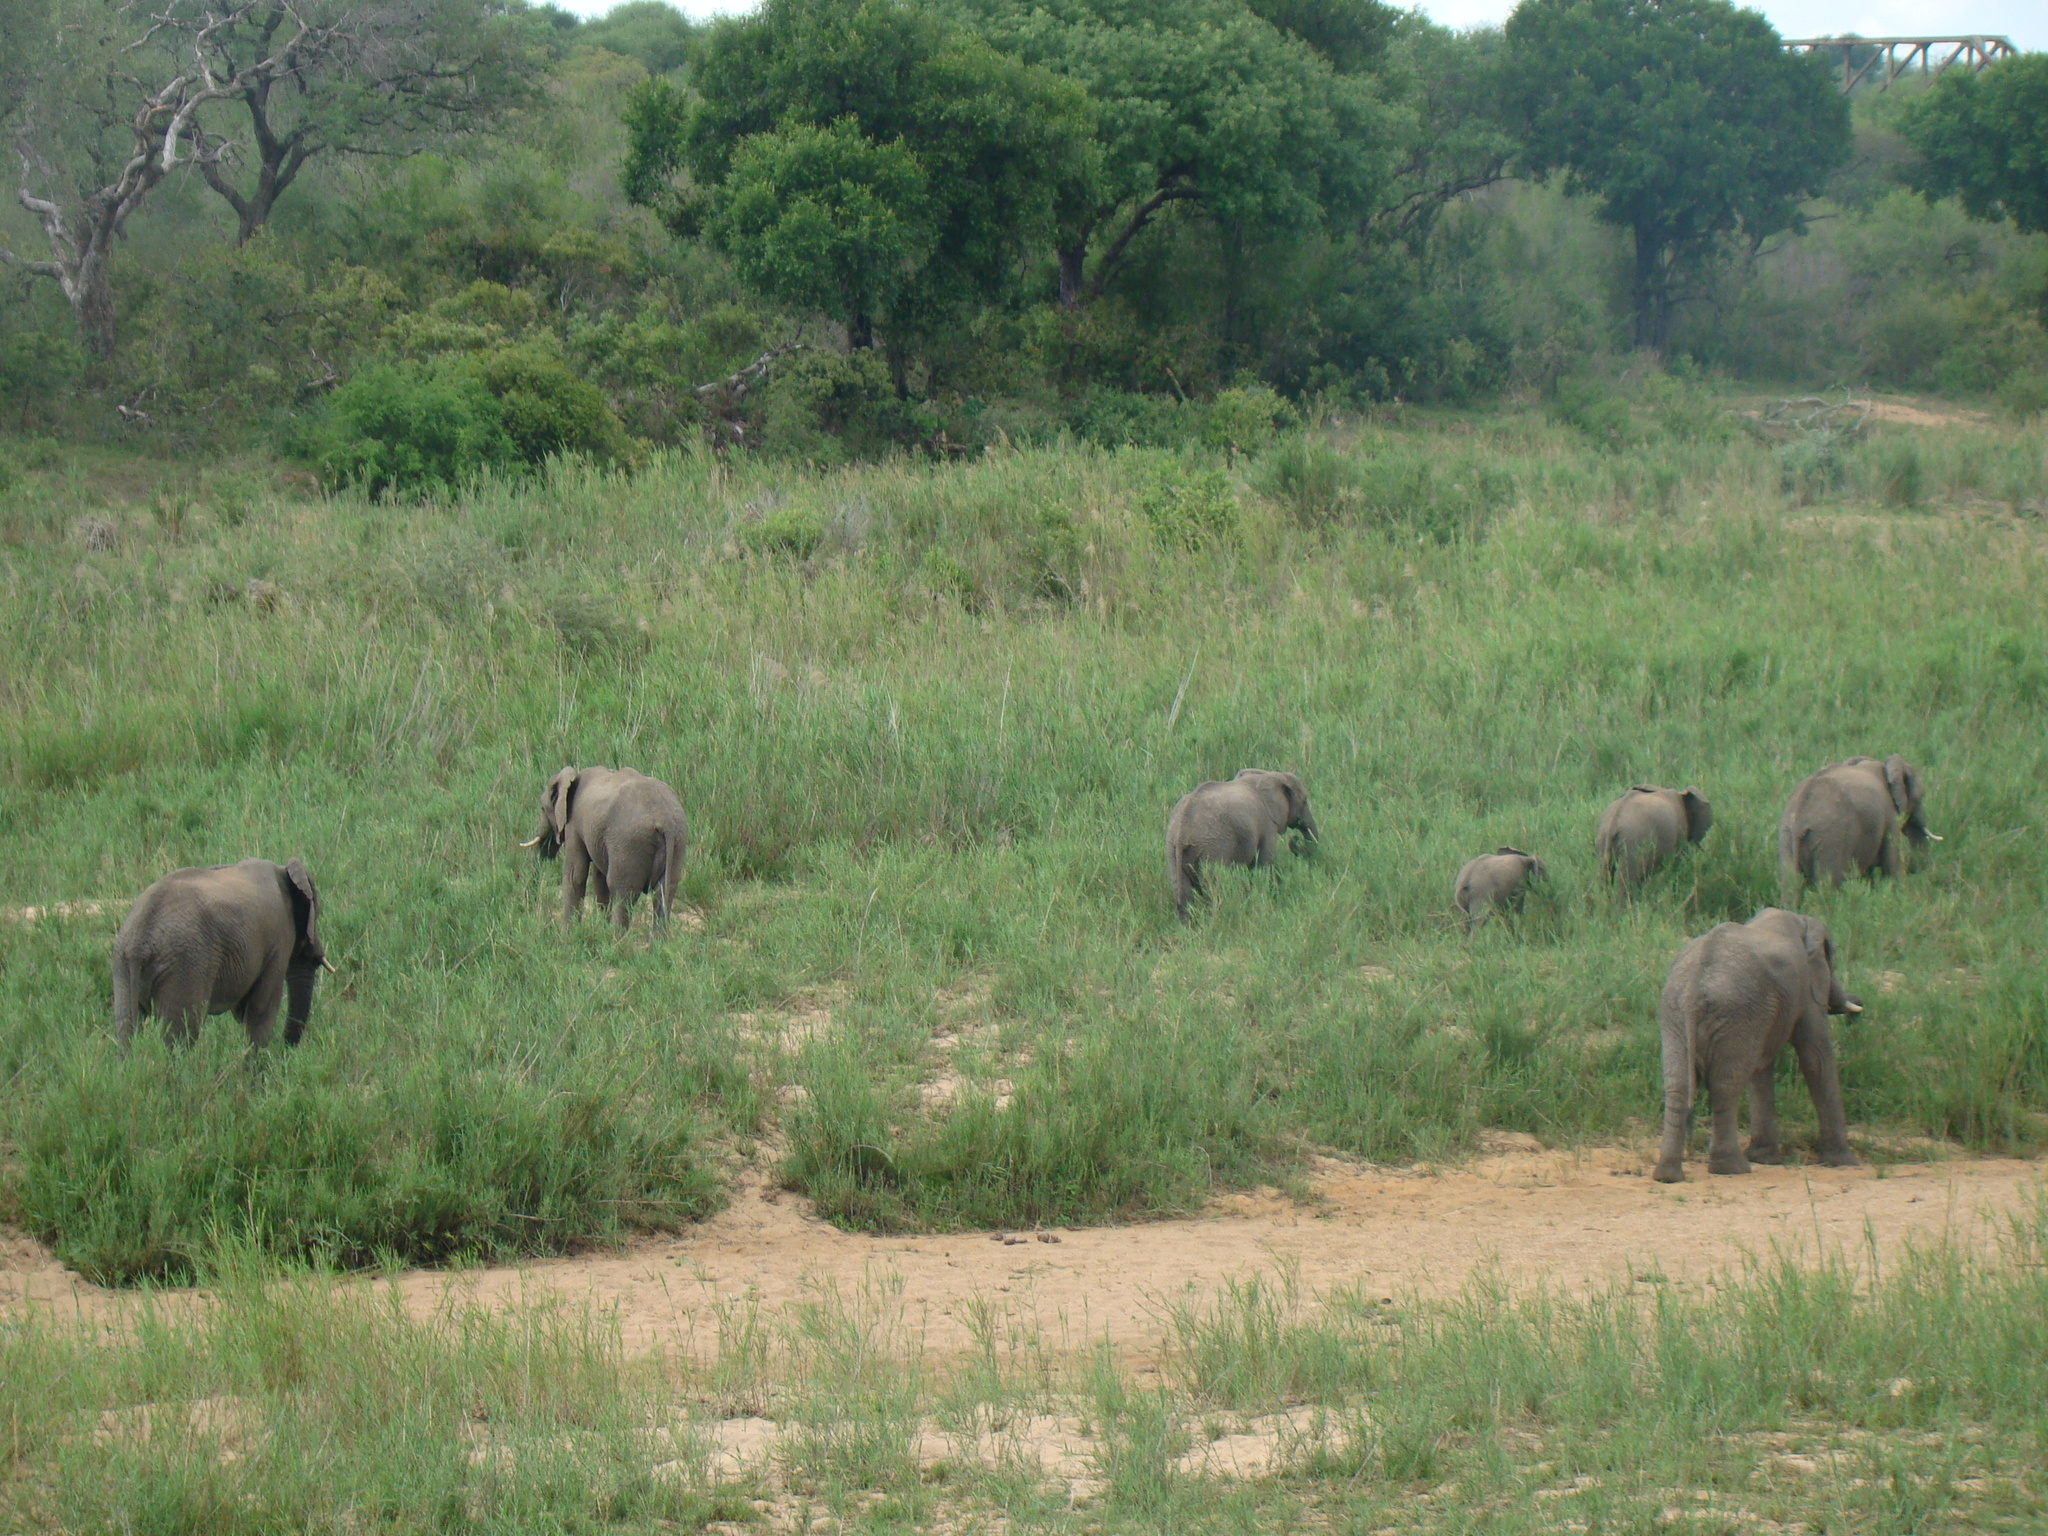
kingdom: Animalia
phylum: Chordata
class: Mammalia
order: Proboscidea
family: Elephantidae
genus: Loxodonta
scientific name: Loxodonta africana
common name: African elephant
